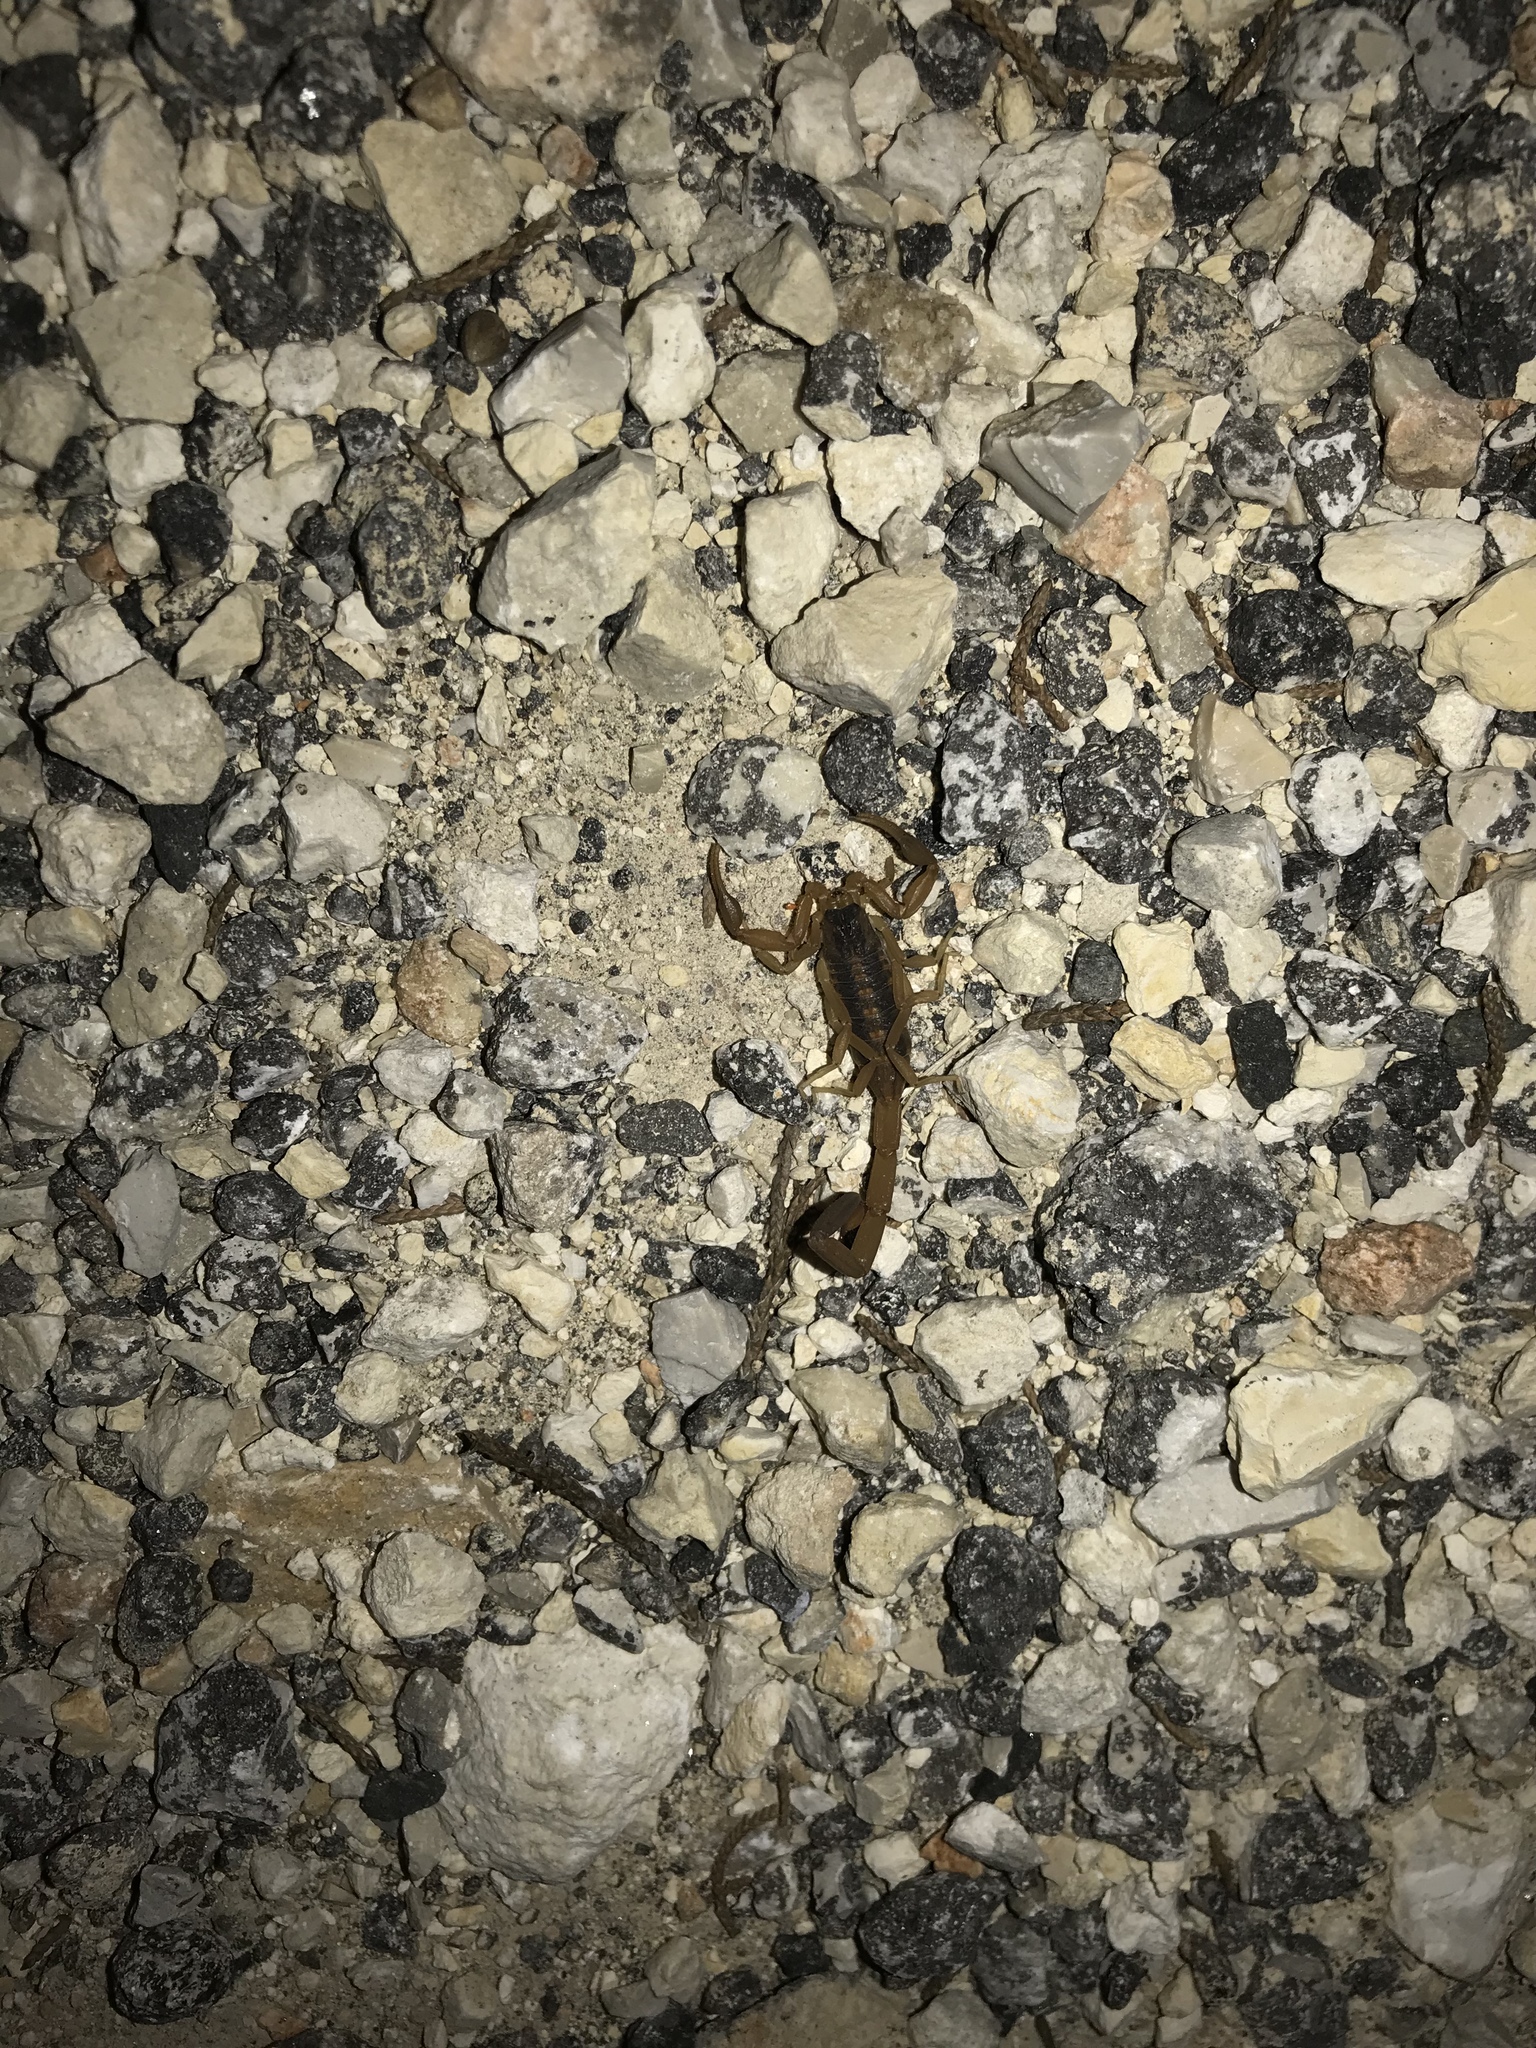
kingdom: Animalia
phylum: Arthropoda
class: Arachnida
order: Scorpiones
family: Buthidae
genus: Centruroides
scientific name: Centruroides vittatus
